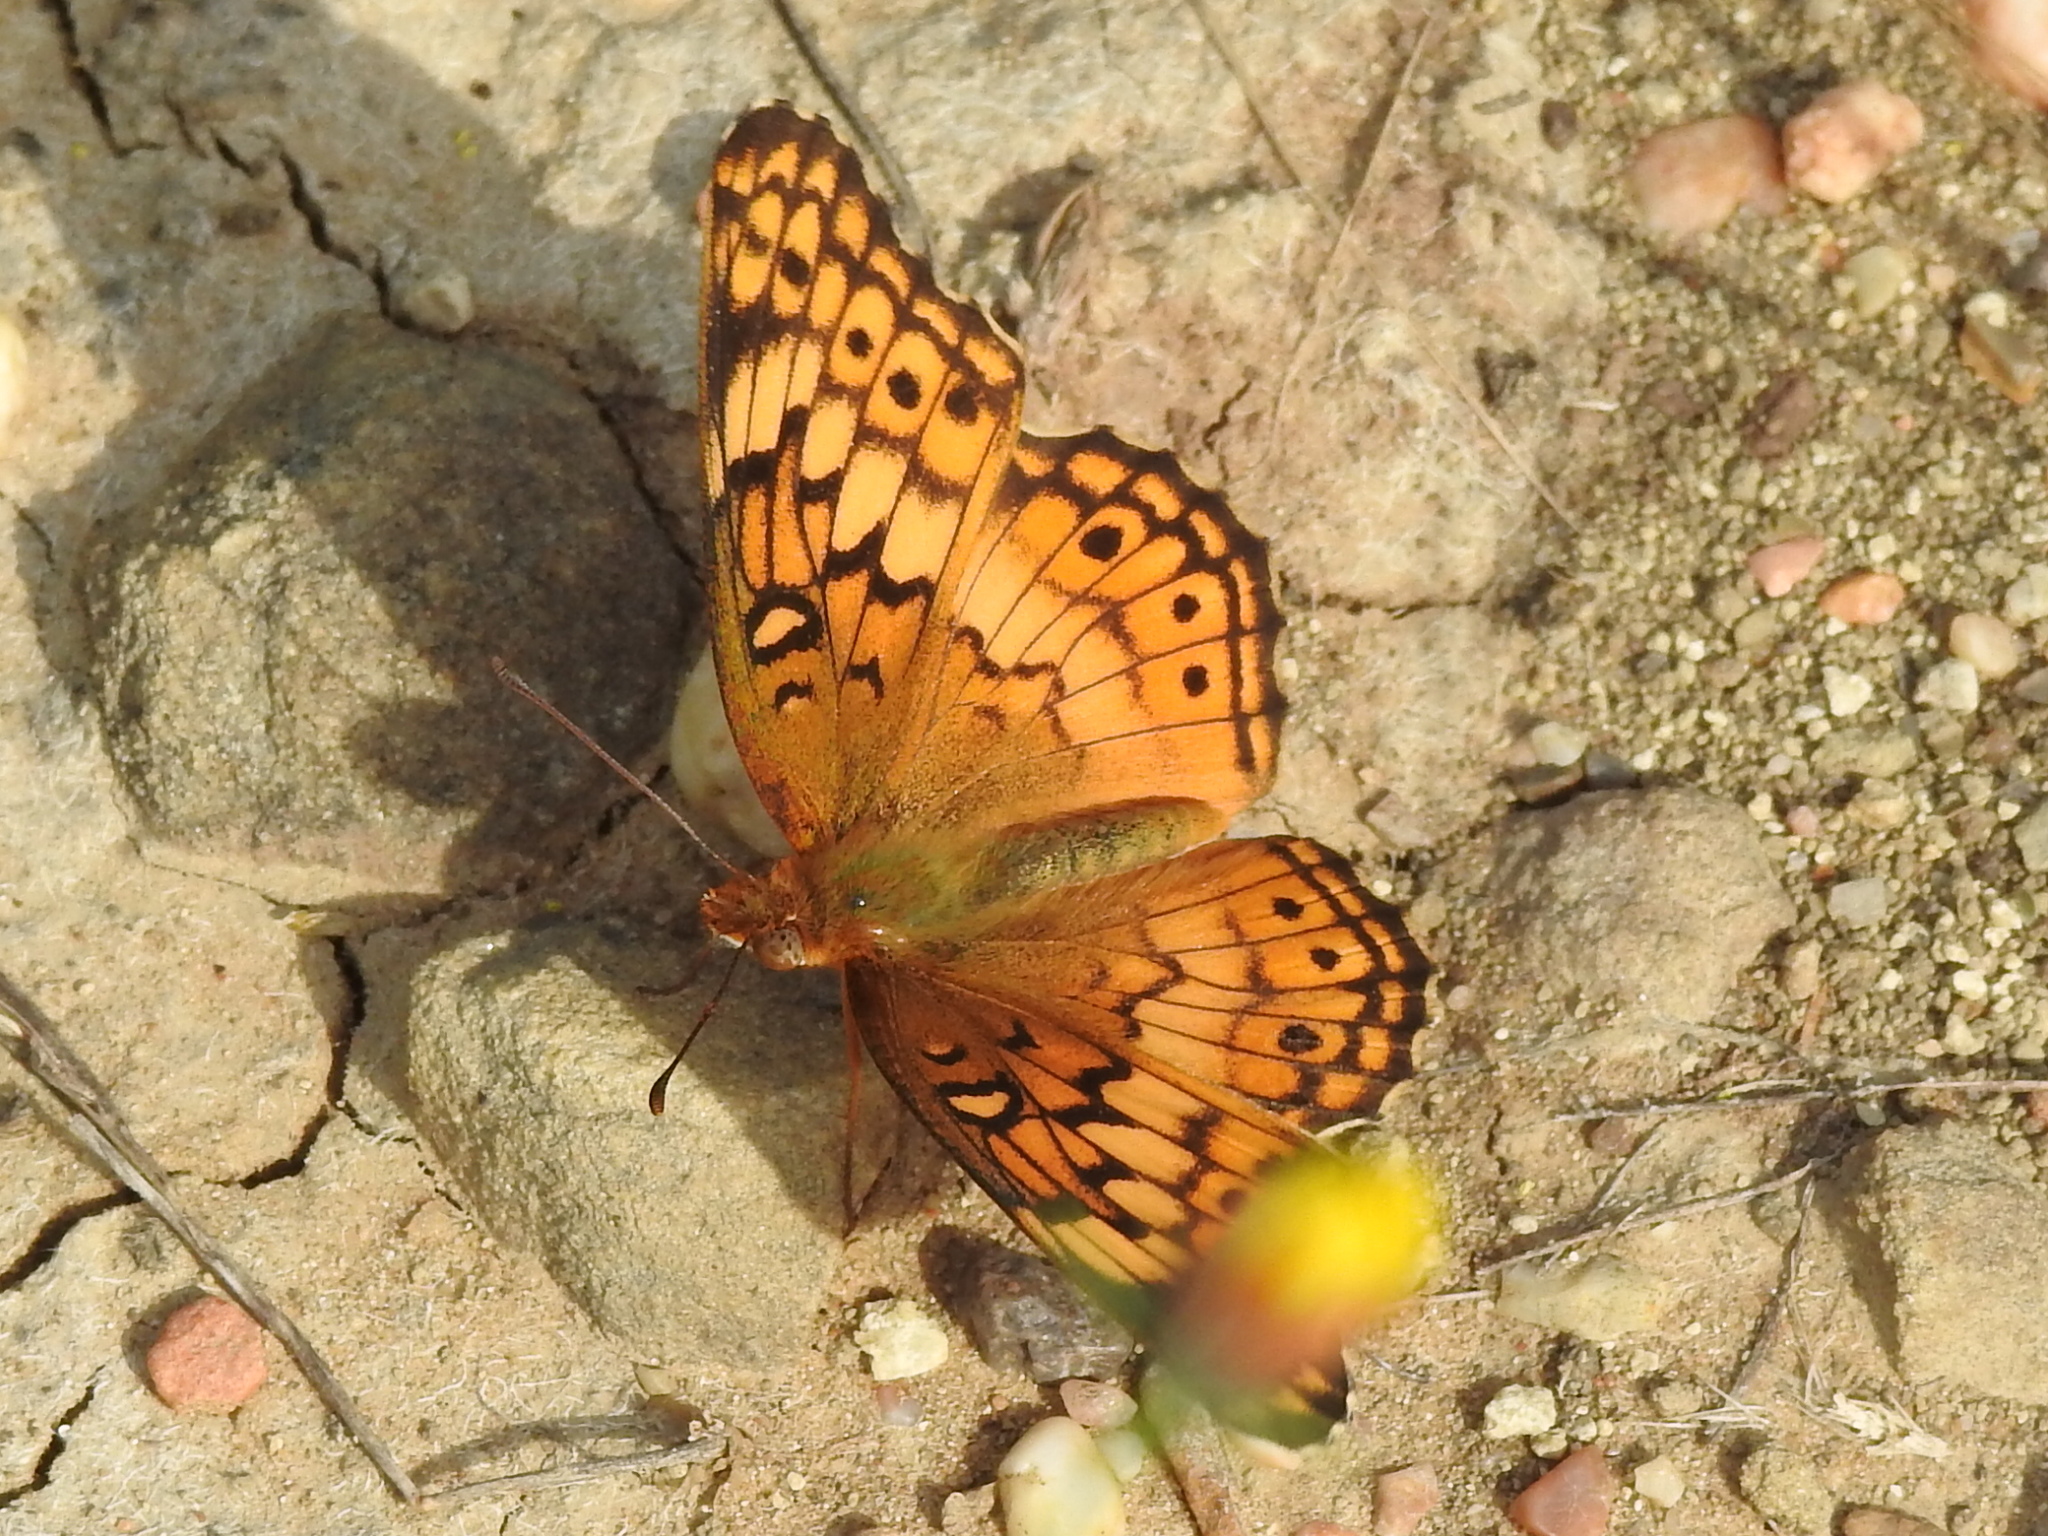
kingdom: Animalia
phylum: Arthropoda
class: Insecta
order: Lepidoptera
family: Nymphalidae
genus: Euptoieta
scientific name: Euptoieta claudia
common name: Variegated fritillary
